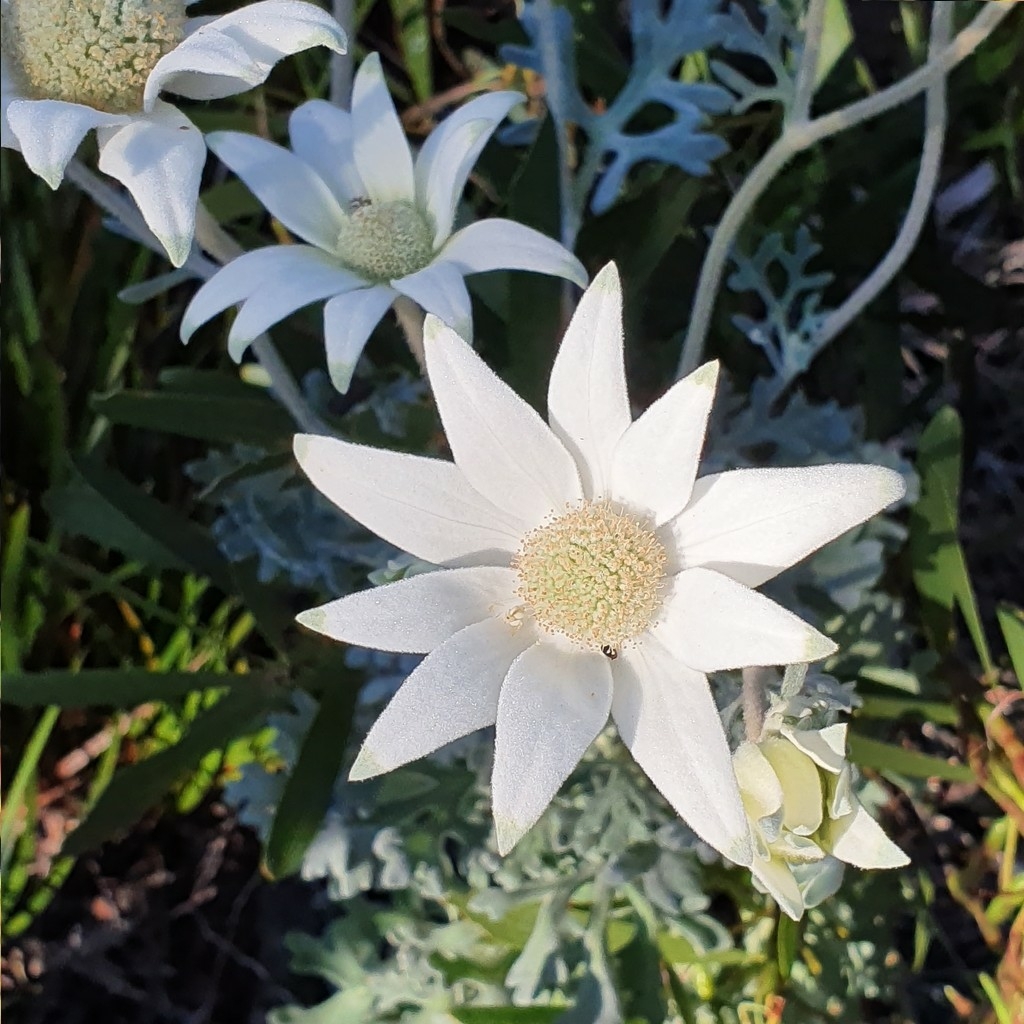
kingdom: Plantae
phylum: Tracheophyta
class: Magnoliopsida
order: Apiales
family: Apiaceae
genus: Actinotus
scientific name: Actinotus helianthi
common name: Flannel-flower
